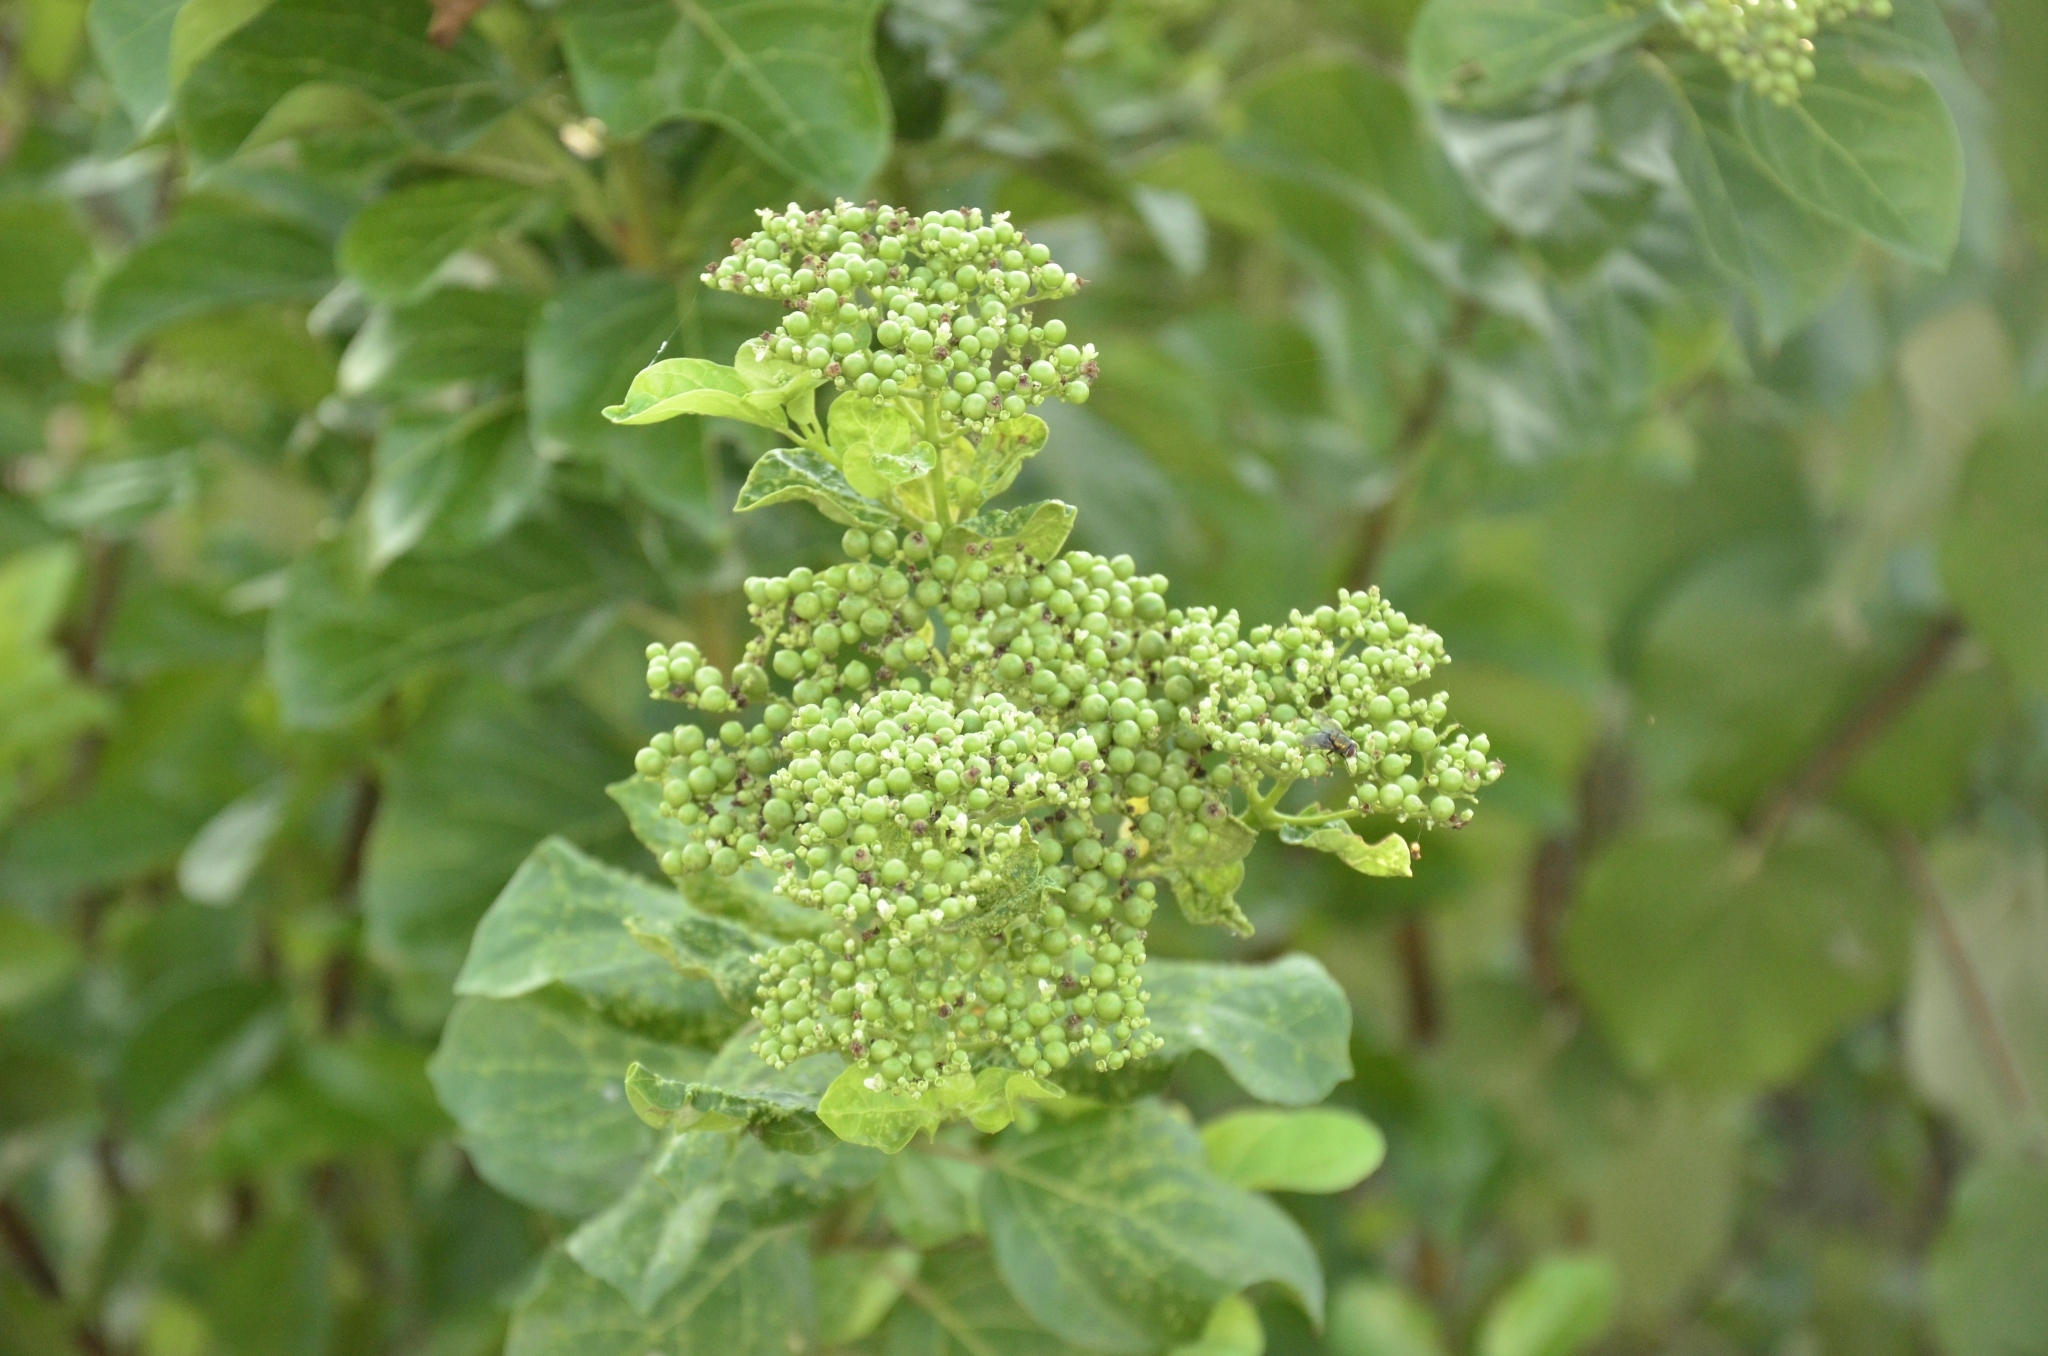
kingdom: Plantae
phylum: Tracheophyta
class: Magnoliopsida
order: Lamiales
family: Lamiaceae
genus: Premna
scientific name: Premna serratifolia
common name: Bastard guelder
